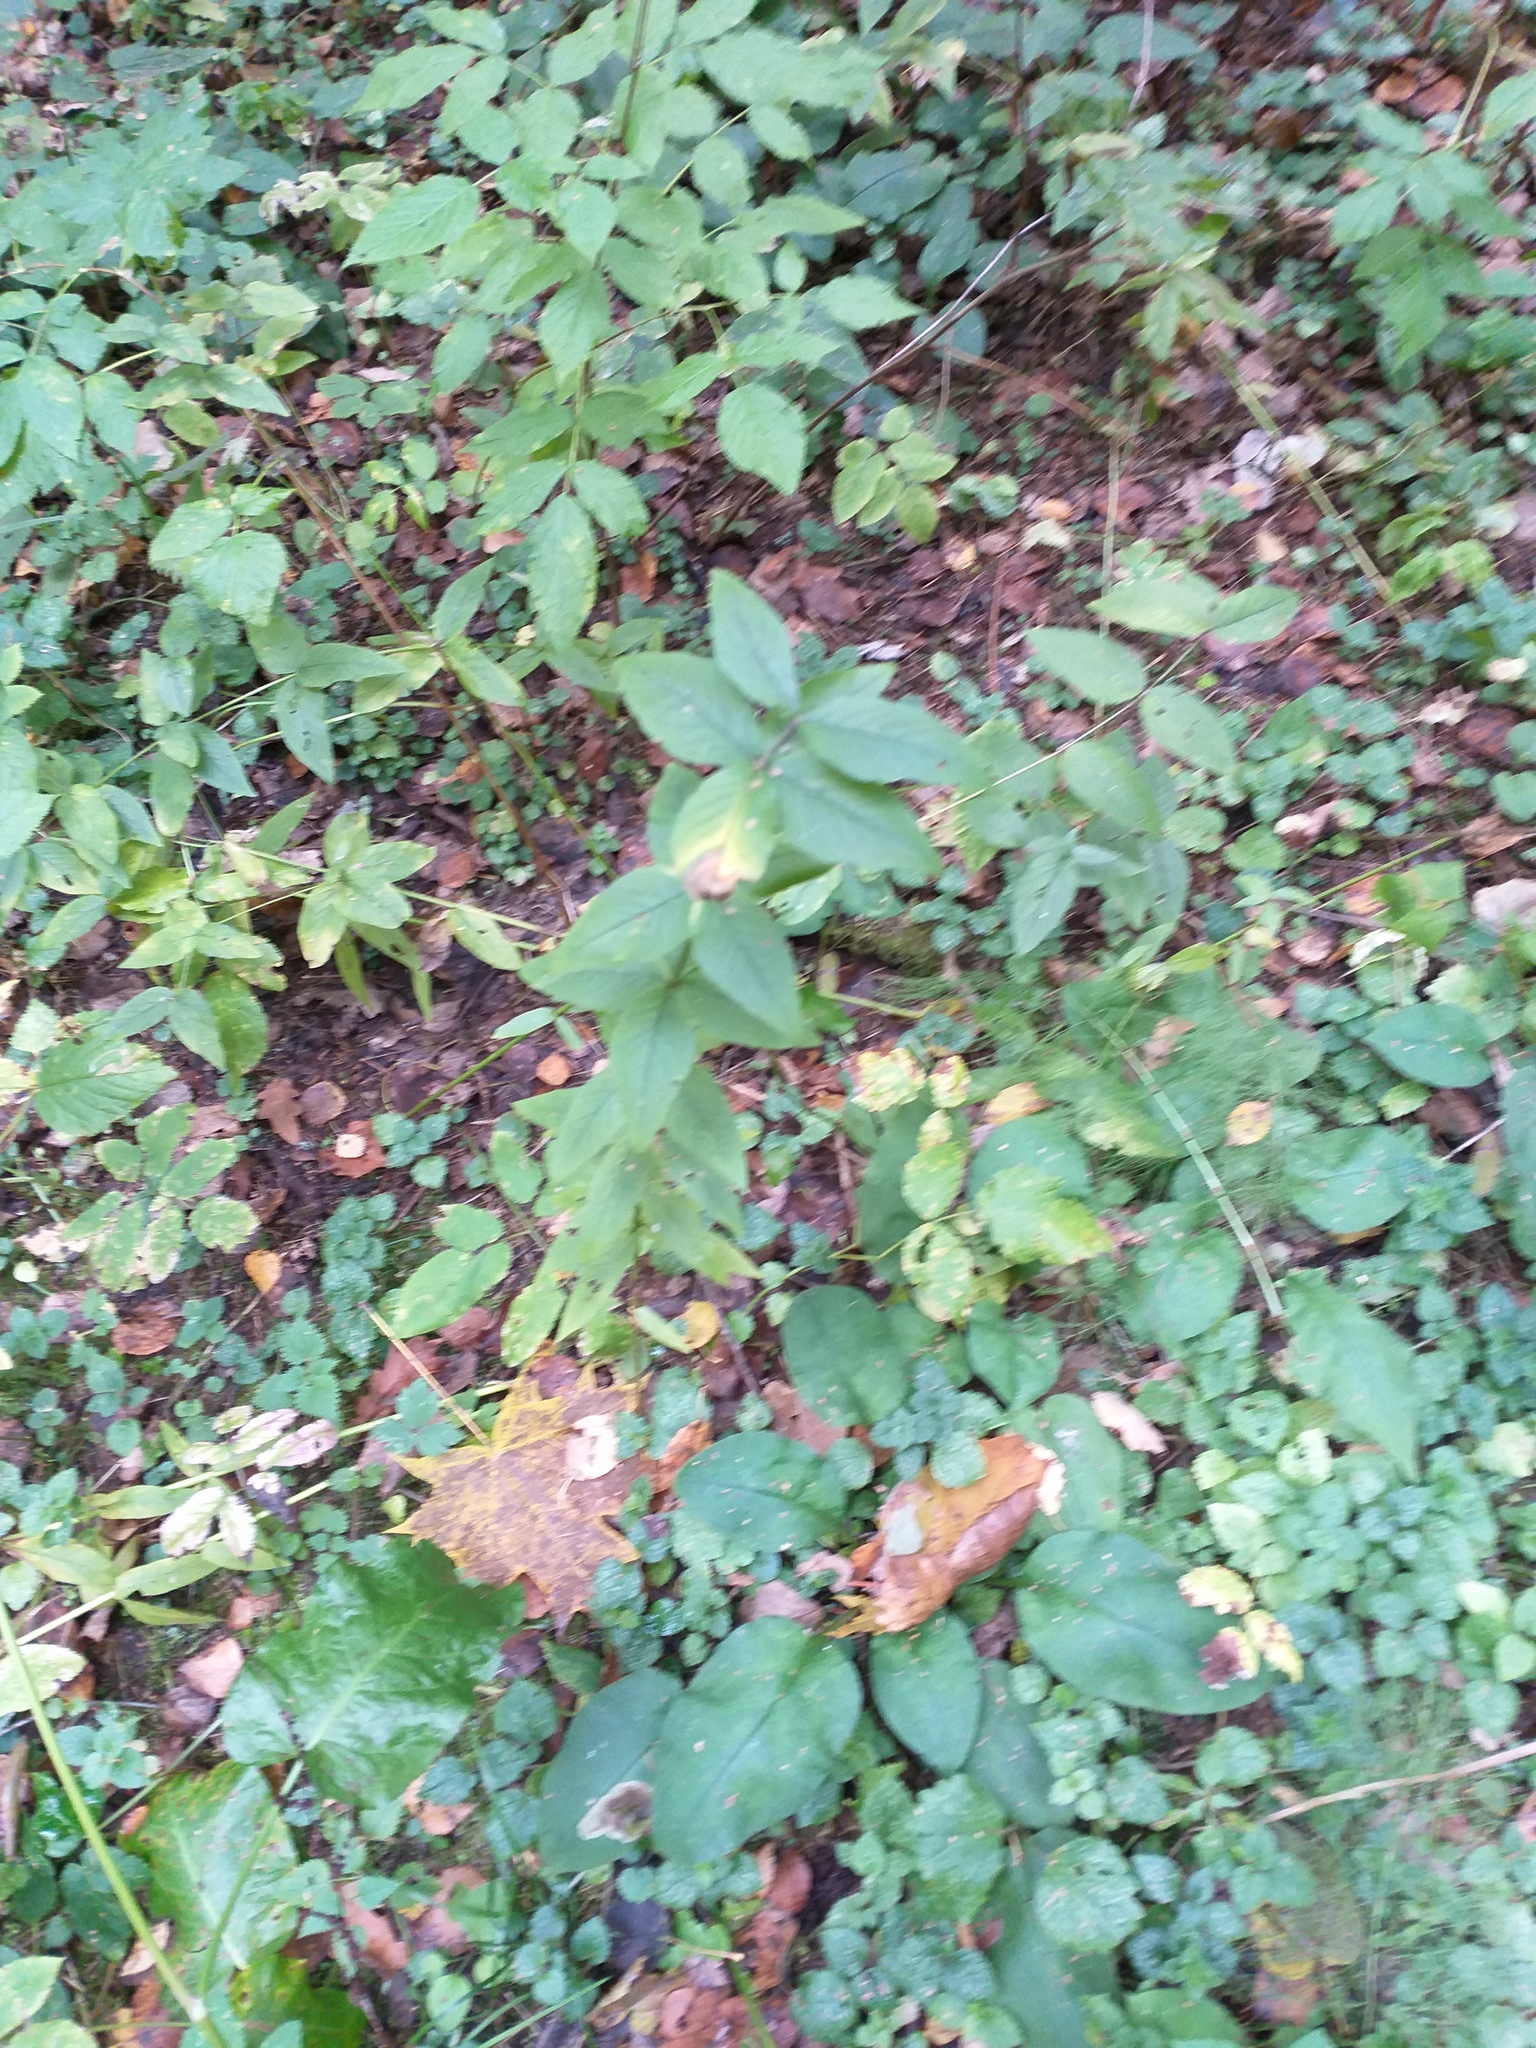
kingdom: Plantae
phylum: Tracheophyta
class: Magnoliopsida
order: Ericales
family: Primulaceae
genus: Lysimachia
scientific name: Lysimachia vulgaris
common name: Yellow loosestrife
